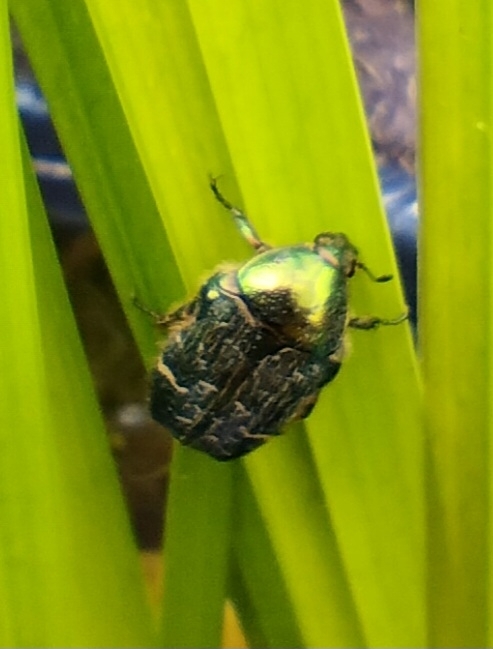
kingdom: Animalia
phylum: Arthropoda
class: Insecta
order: Coleoptera
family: Scarabaeidae
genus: Cetonia
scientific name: Cetonia aurata
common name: Rose chafer
